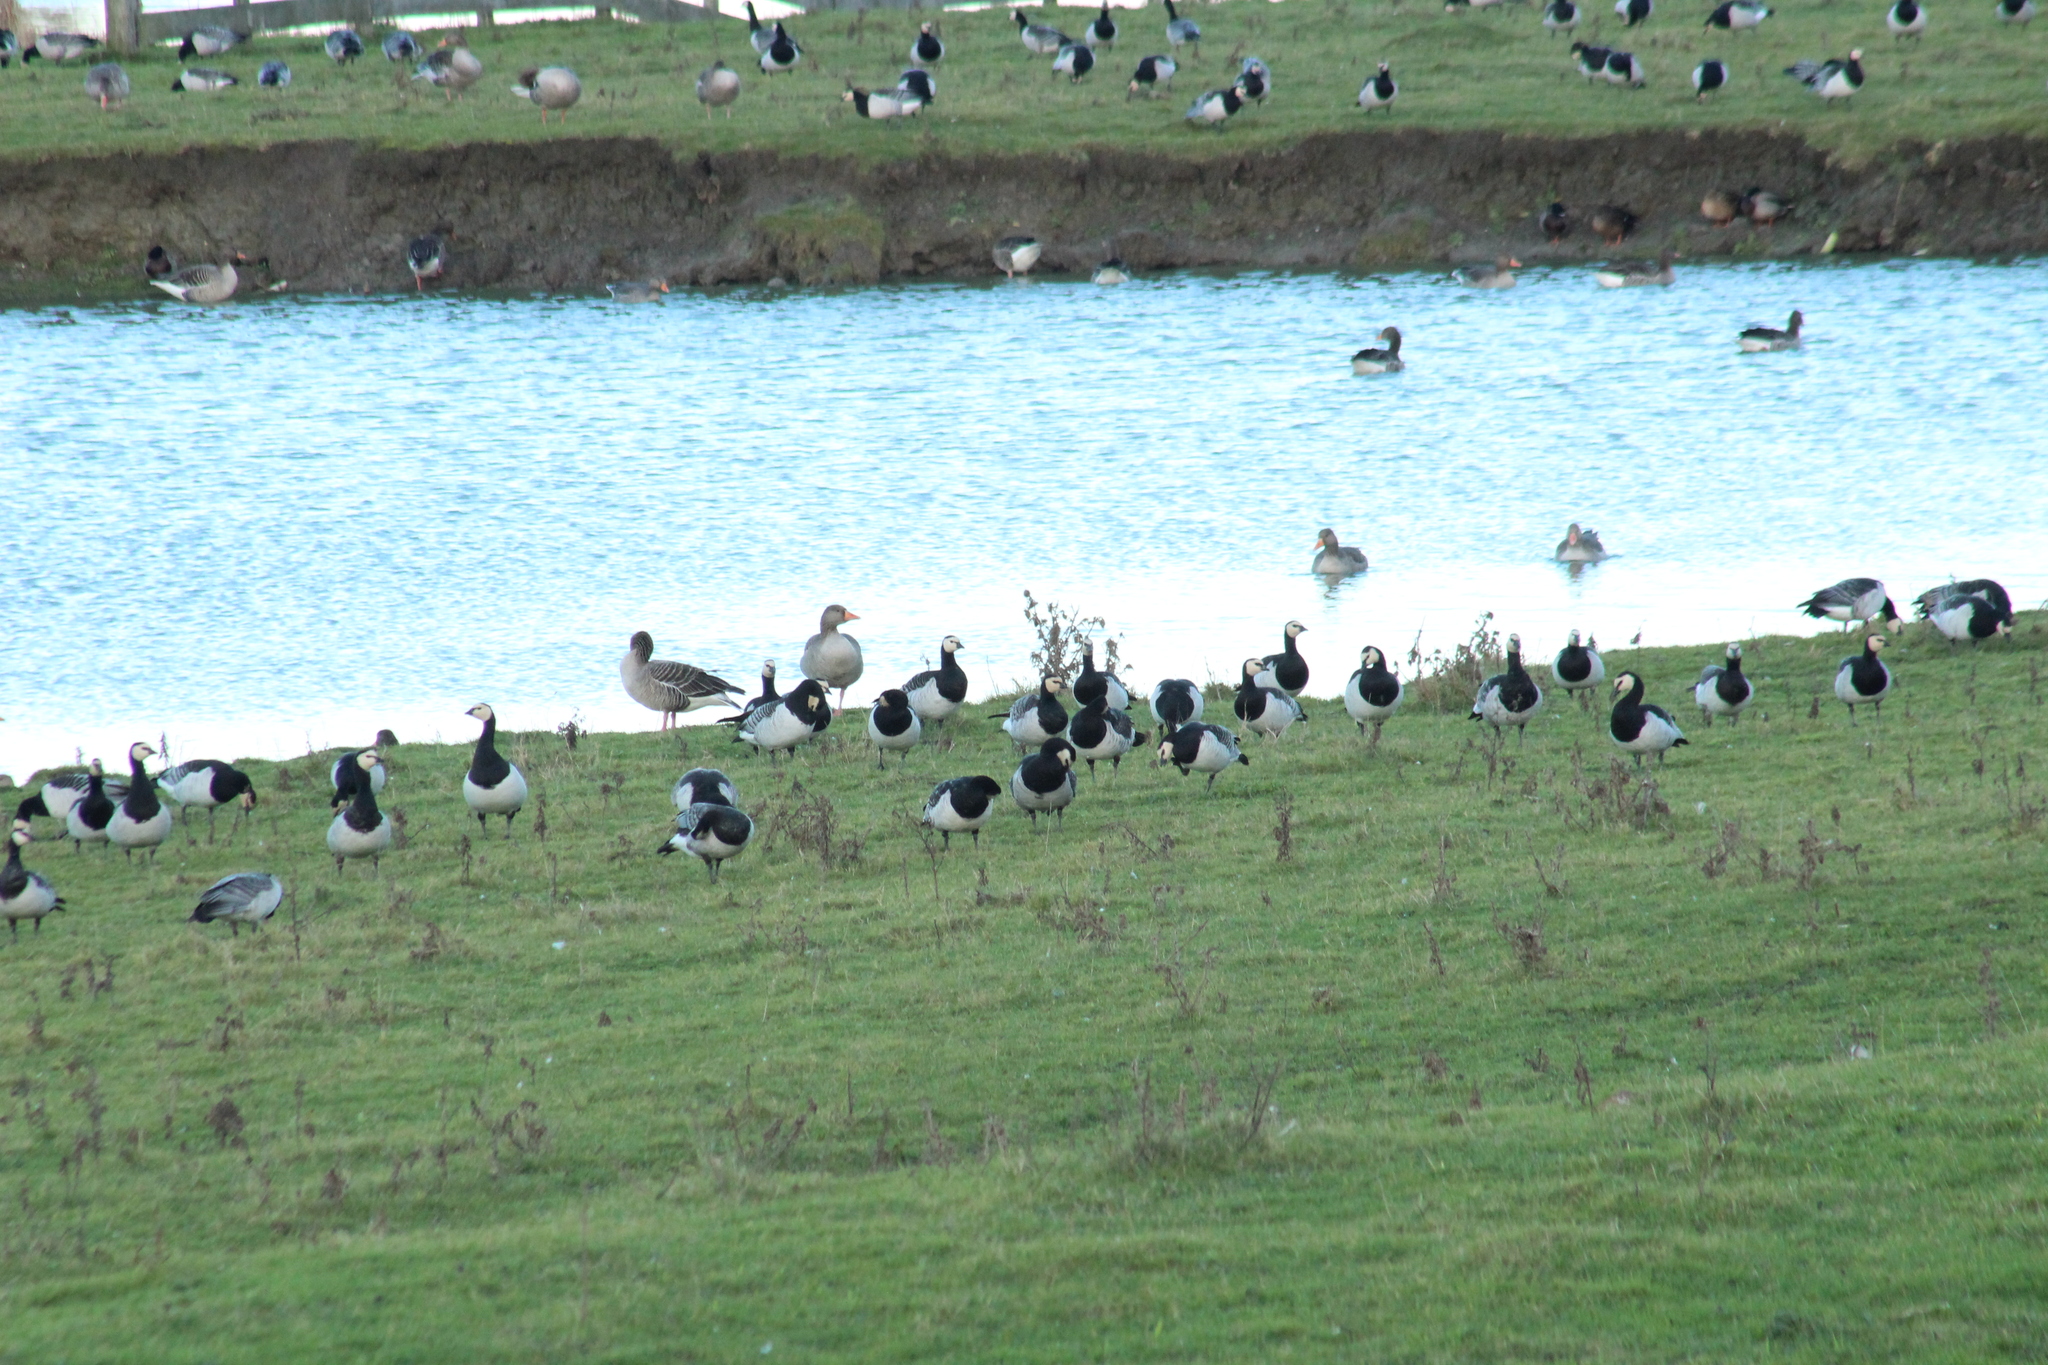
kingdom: Animalia
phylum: Chordata
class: Aves
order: Anseriformes
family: Anatidae
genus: Branta
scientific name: Branta leucopsis
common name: Barnacle goose
